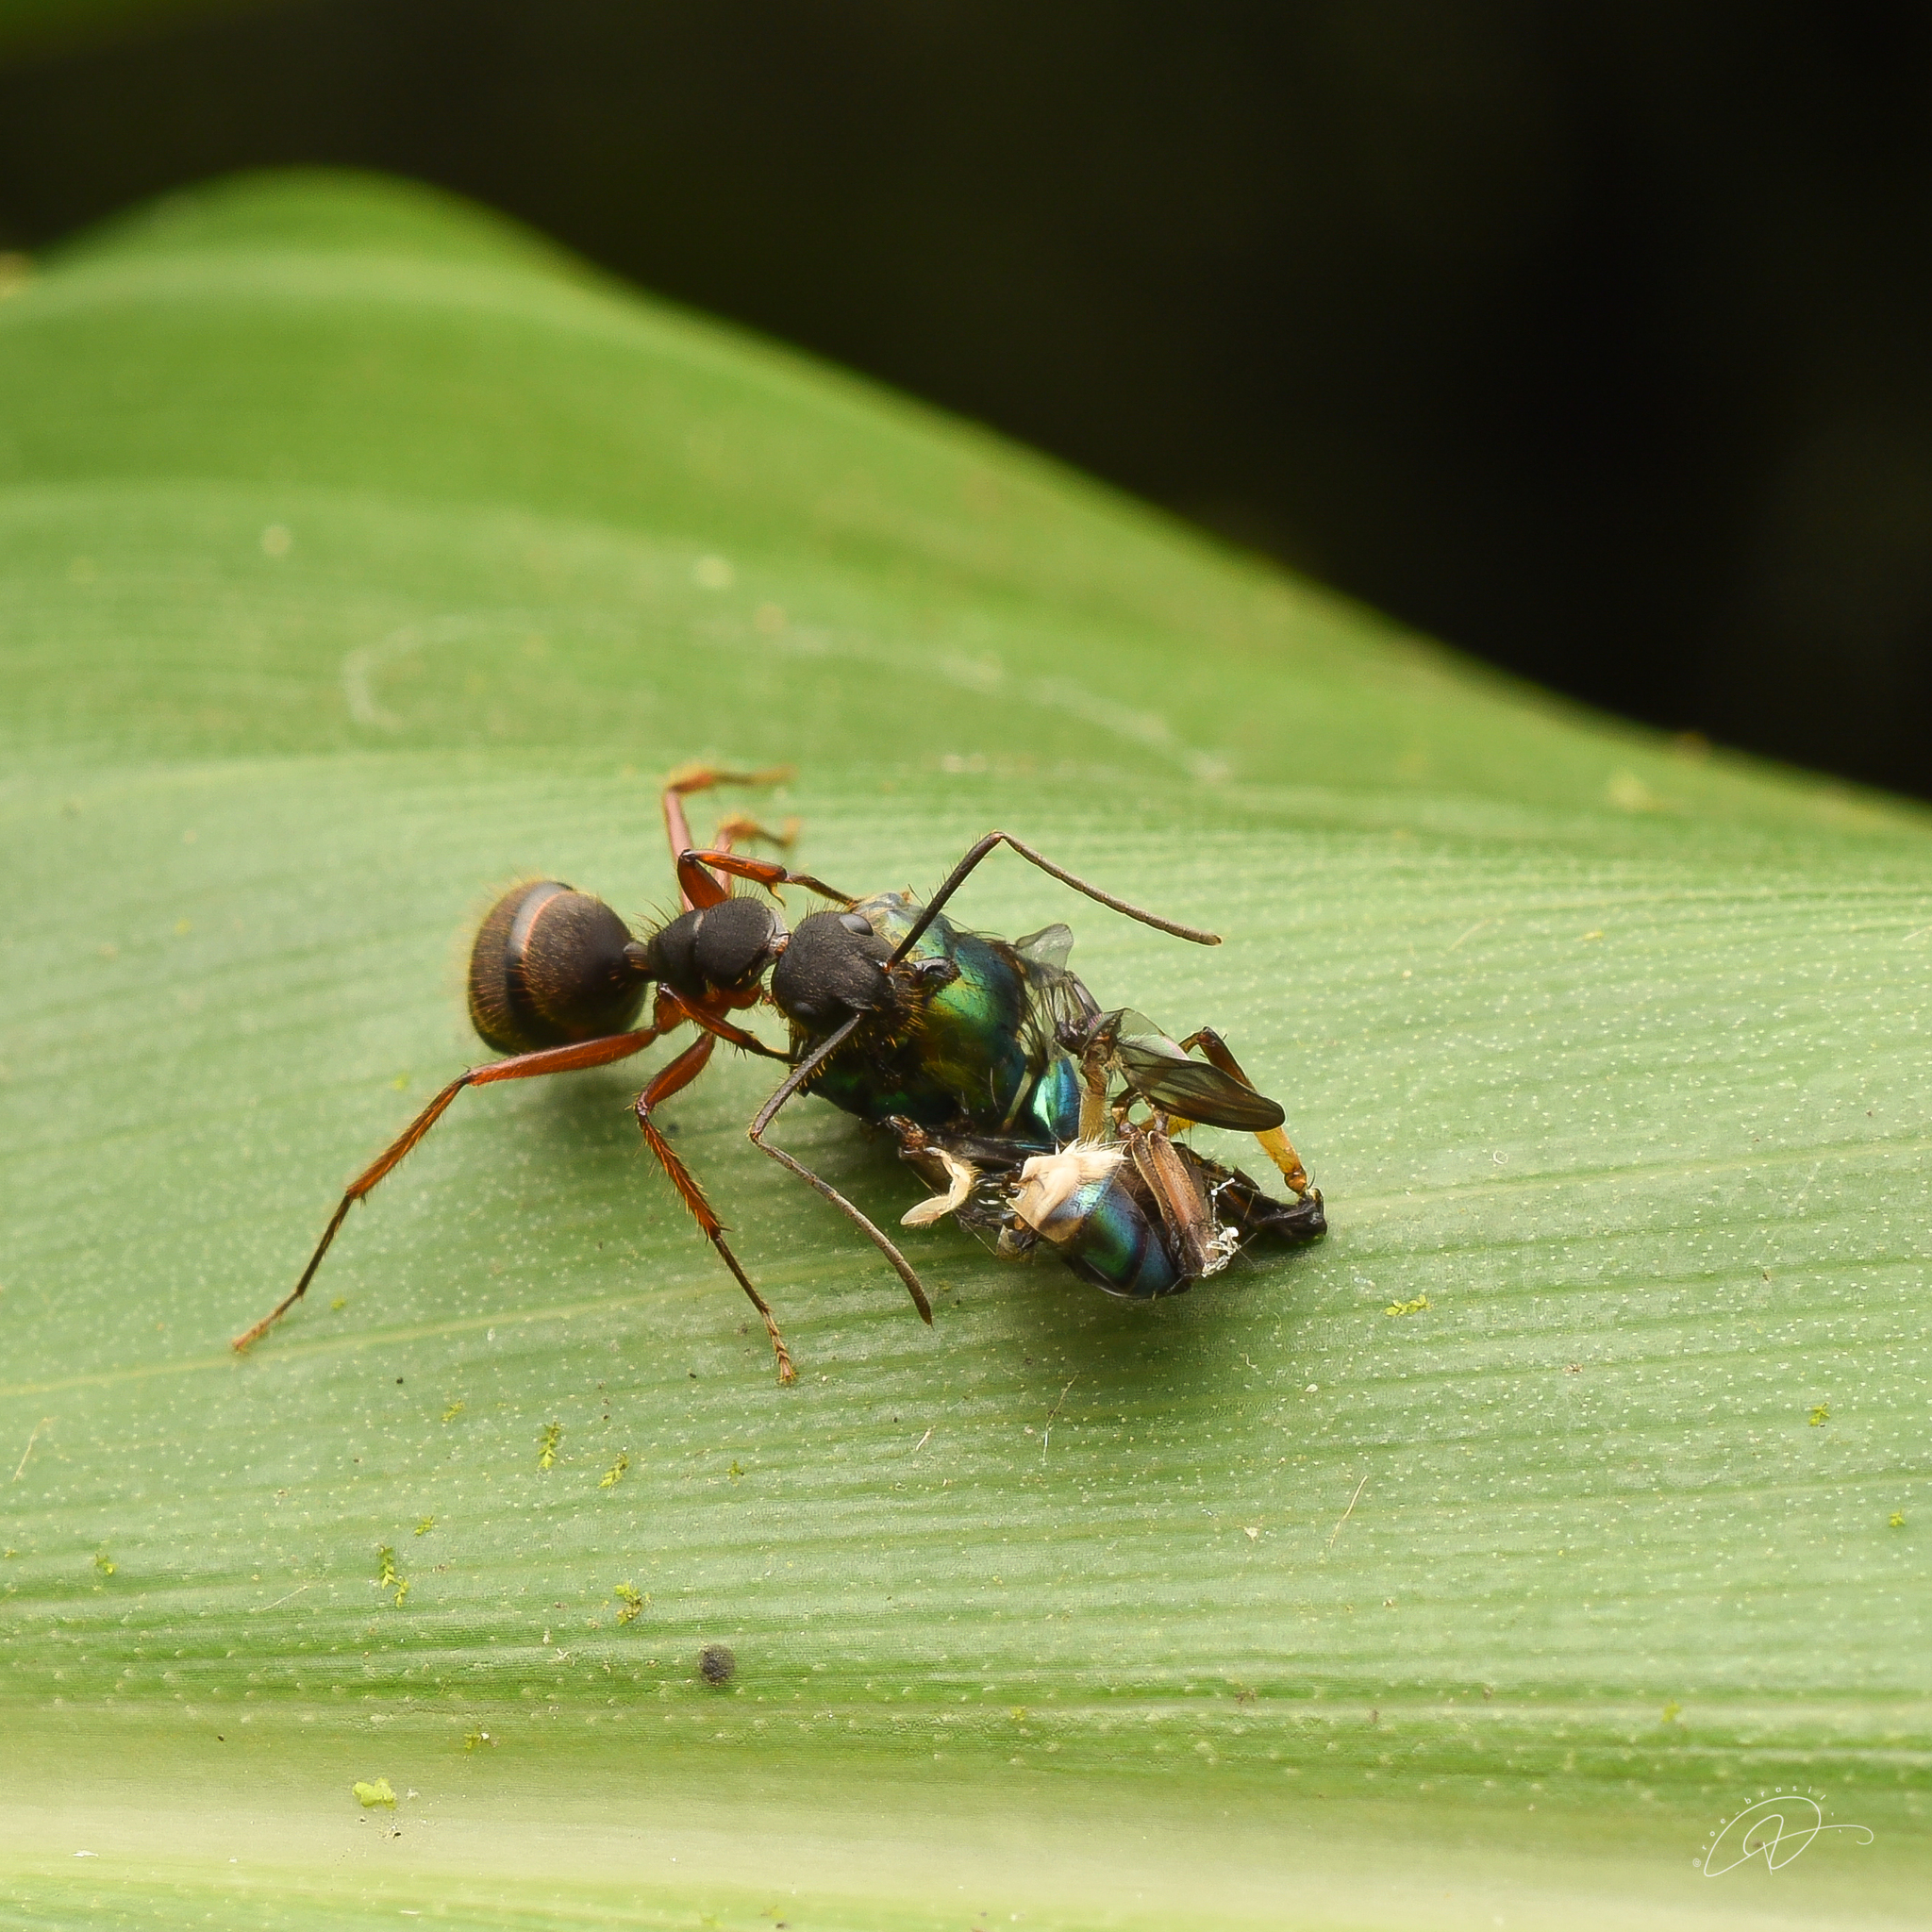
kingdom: Animalia
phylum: Arthropoda
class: Insecta
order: Hymenoptera
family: Formicidae
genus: Camponotus
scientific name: Camponotus rufipes
